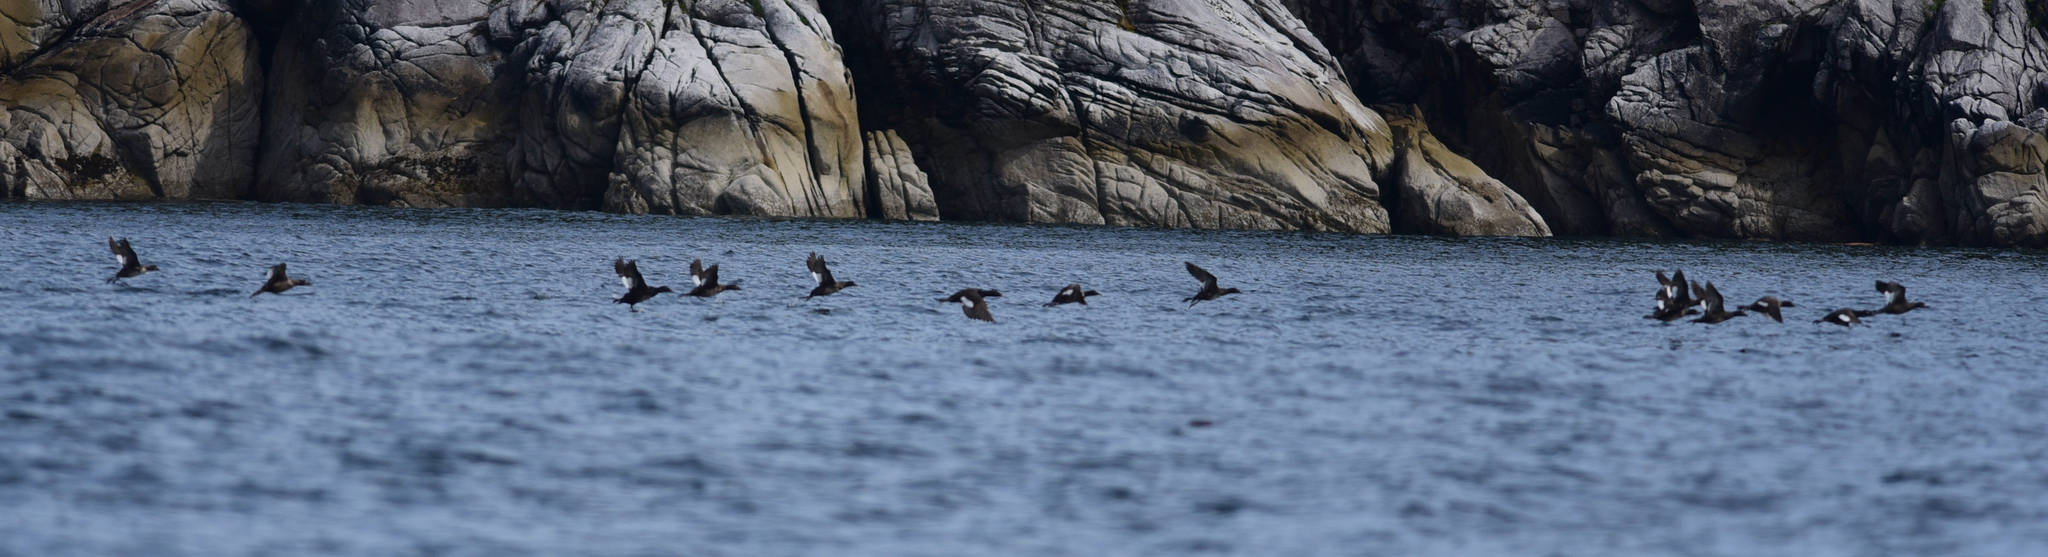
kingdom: Animalia
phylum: Chordata
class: Aves
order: Anseriformes
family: Anatidae
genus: Melanitta
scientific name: Melanitta deglandi
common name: White-winged scoter
